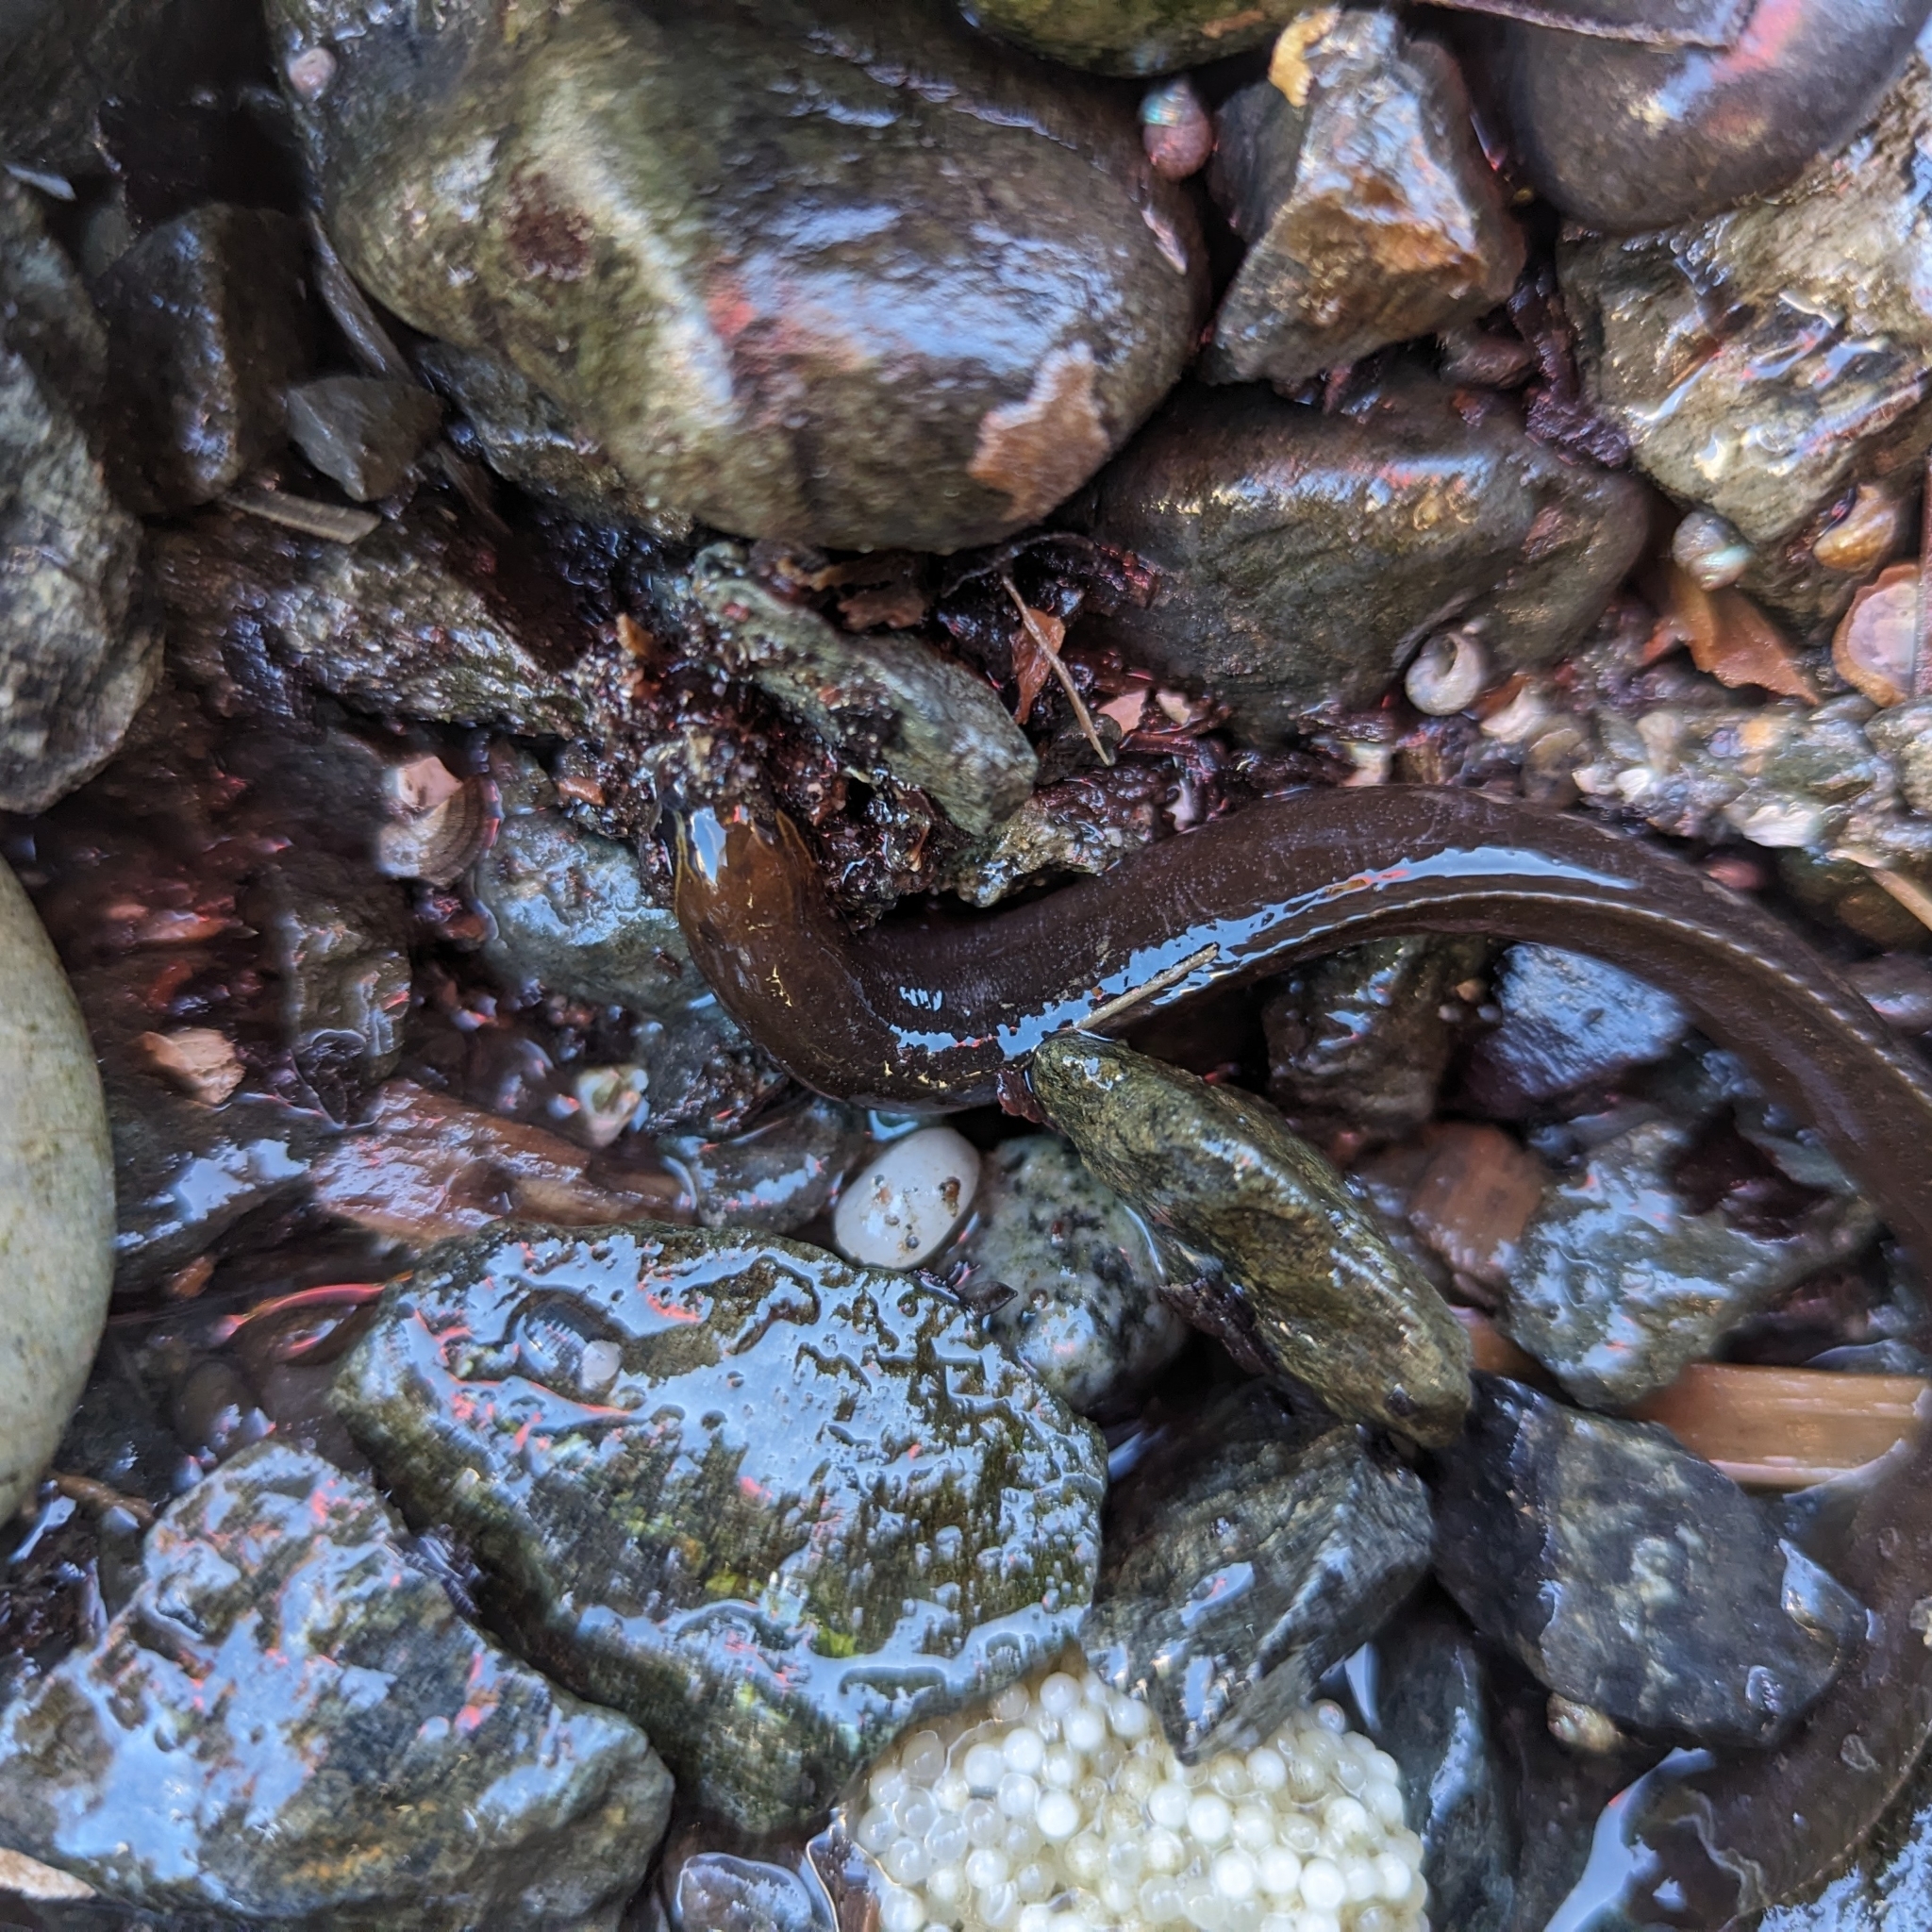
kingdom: Animalia
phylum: Chordata
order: Perciformes
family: Stichaeidae
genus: Xiphister
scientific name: Xiphister atropurpureus
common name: Black prickleback
